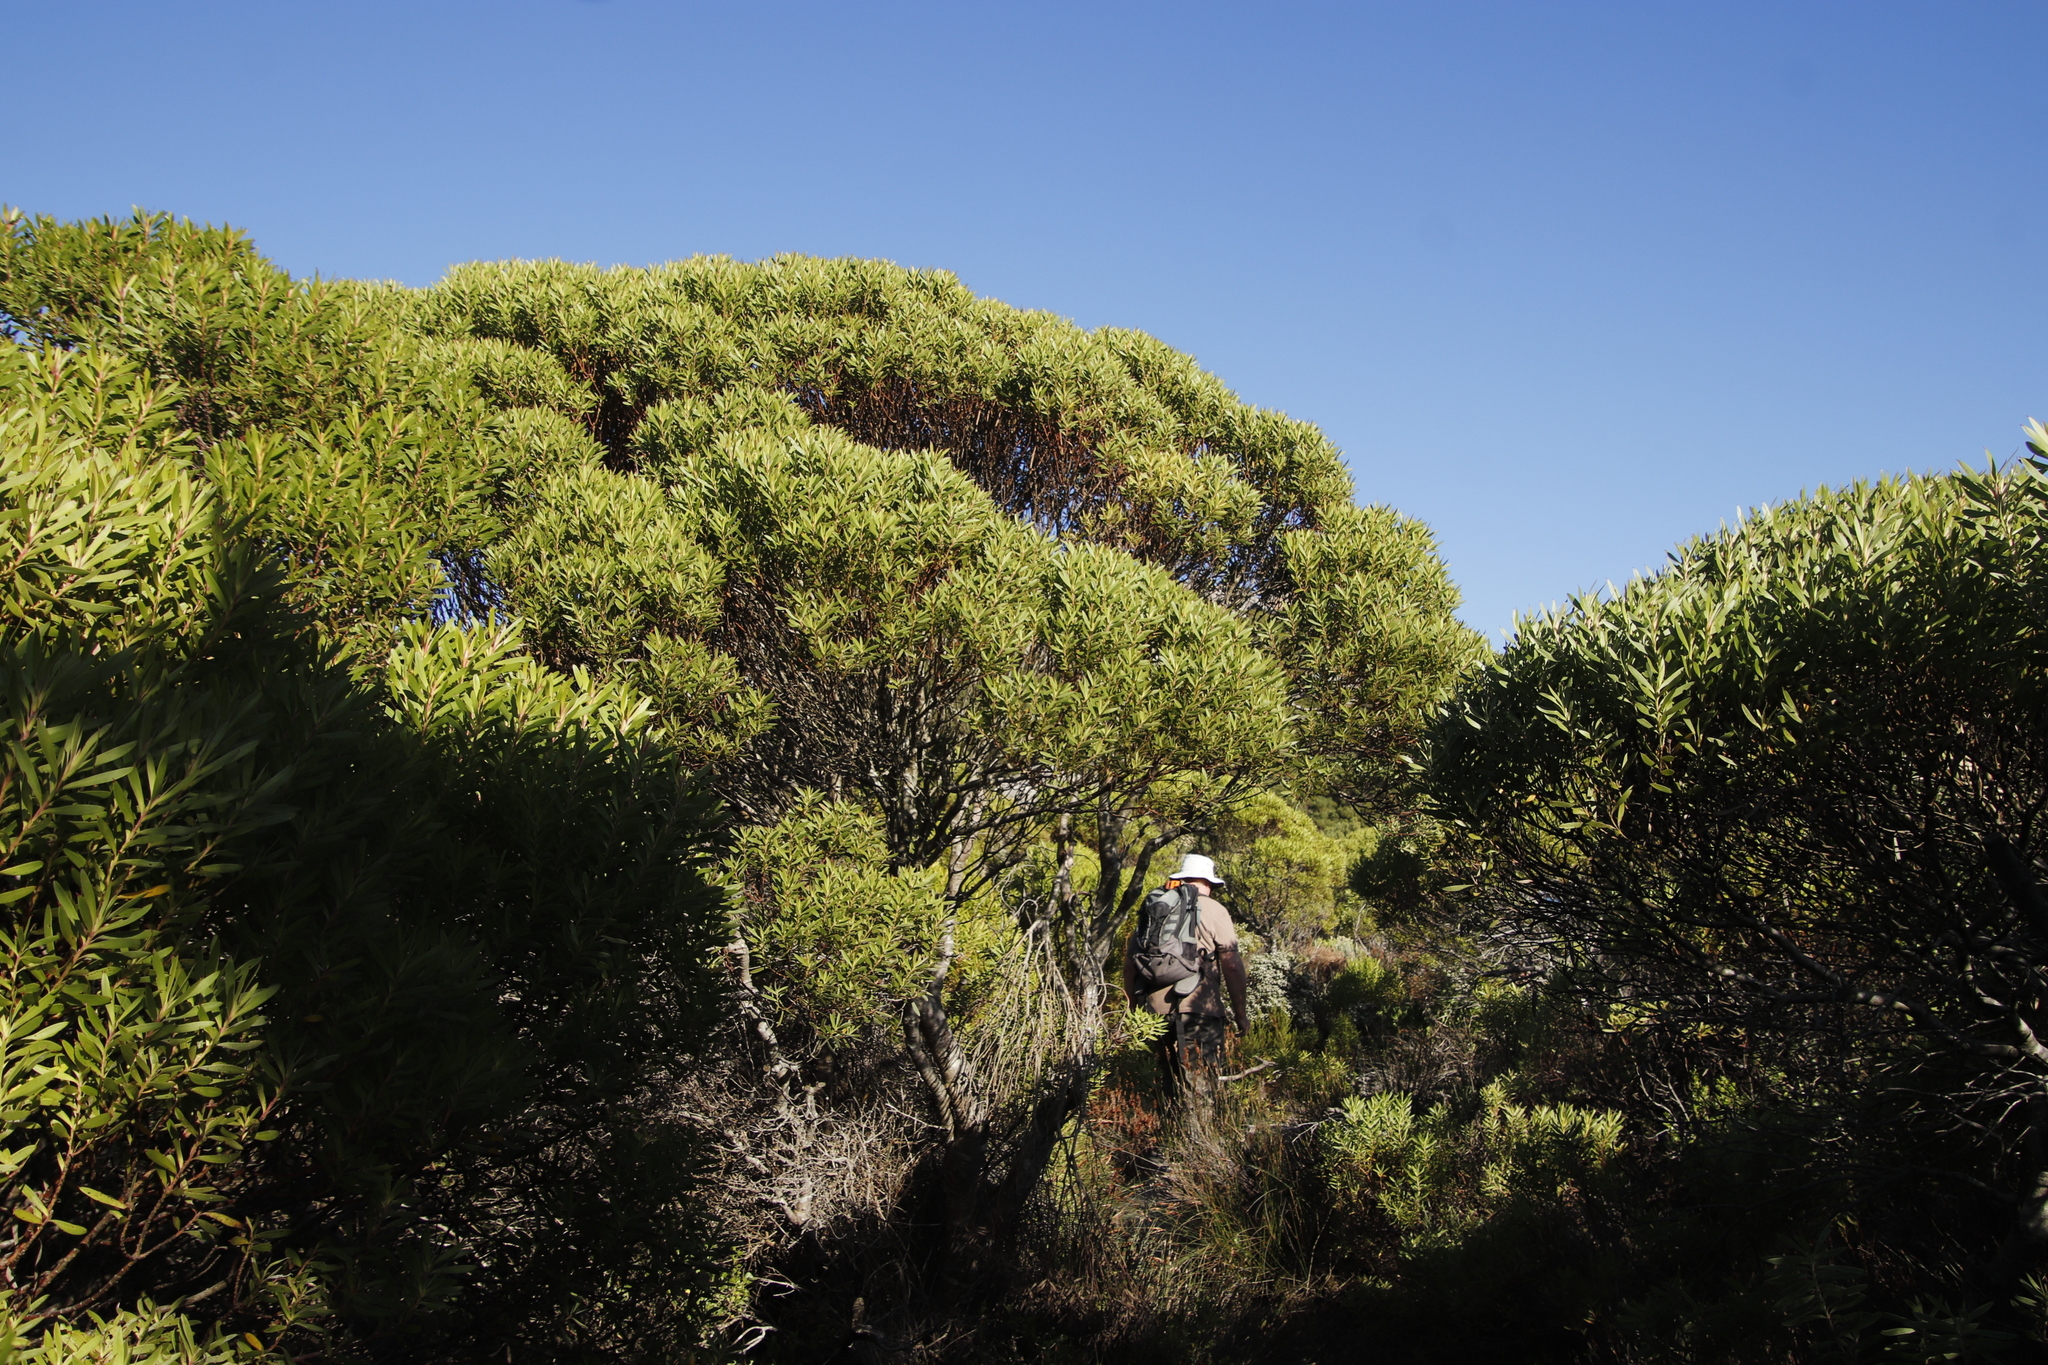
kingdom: Plantae
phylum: Tracheophyta
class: Magnoliopsida
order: Proteales
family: Proteaceae
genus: Leucadendron
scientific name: Leucadendron coniferum
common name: Dune conebush
